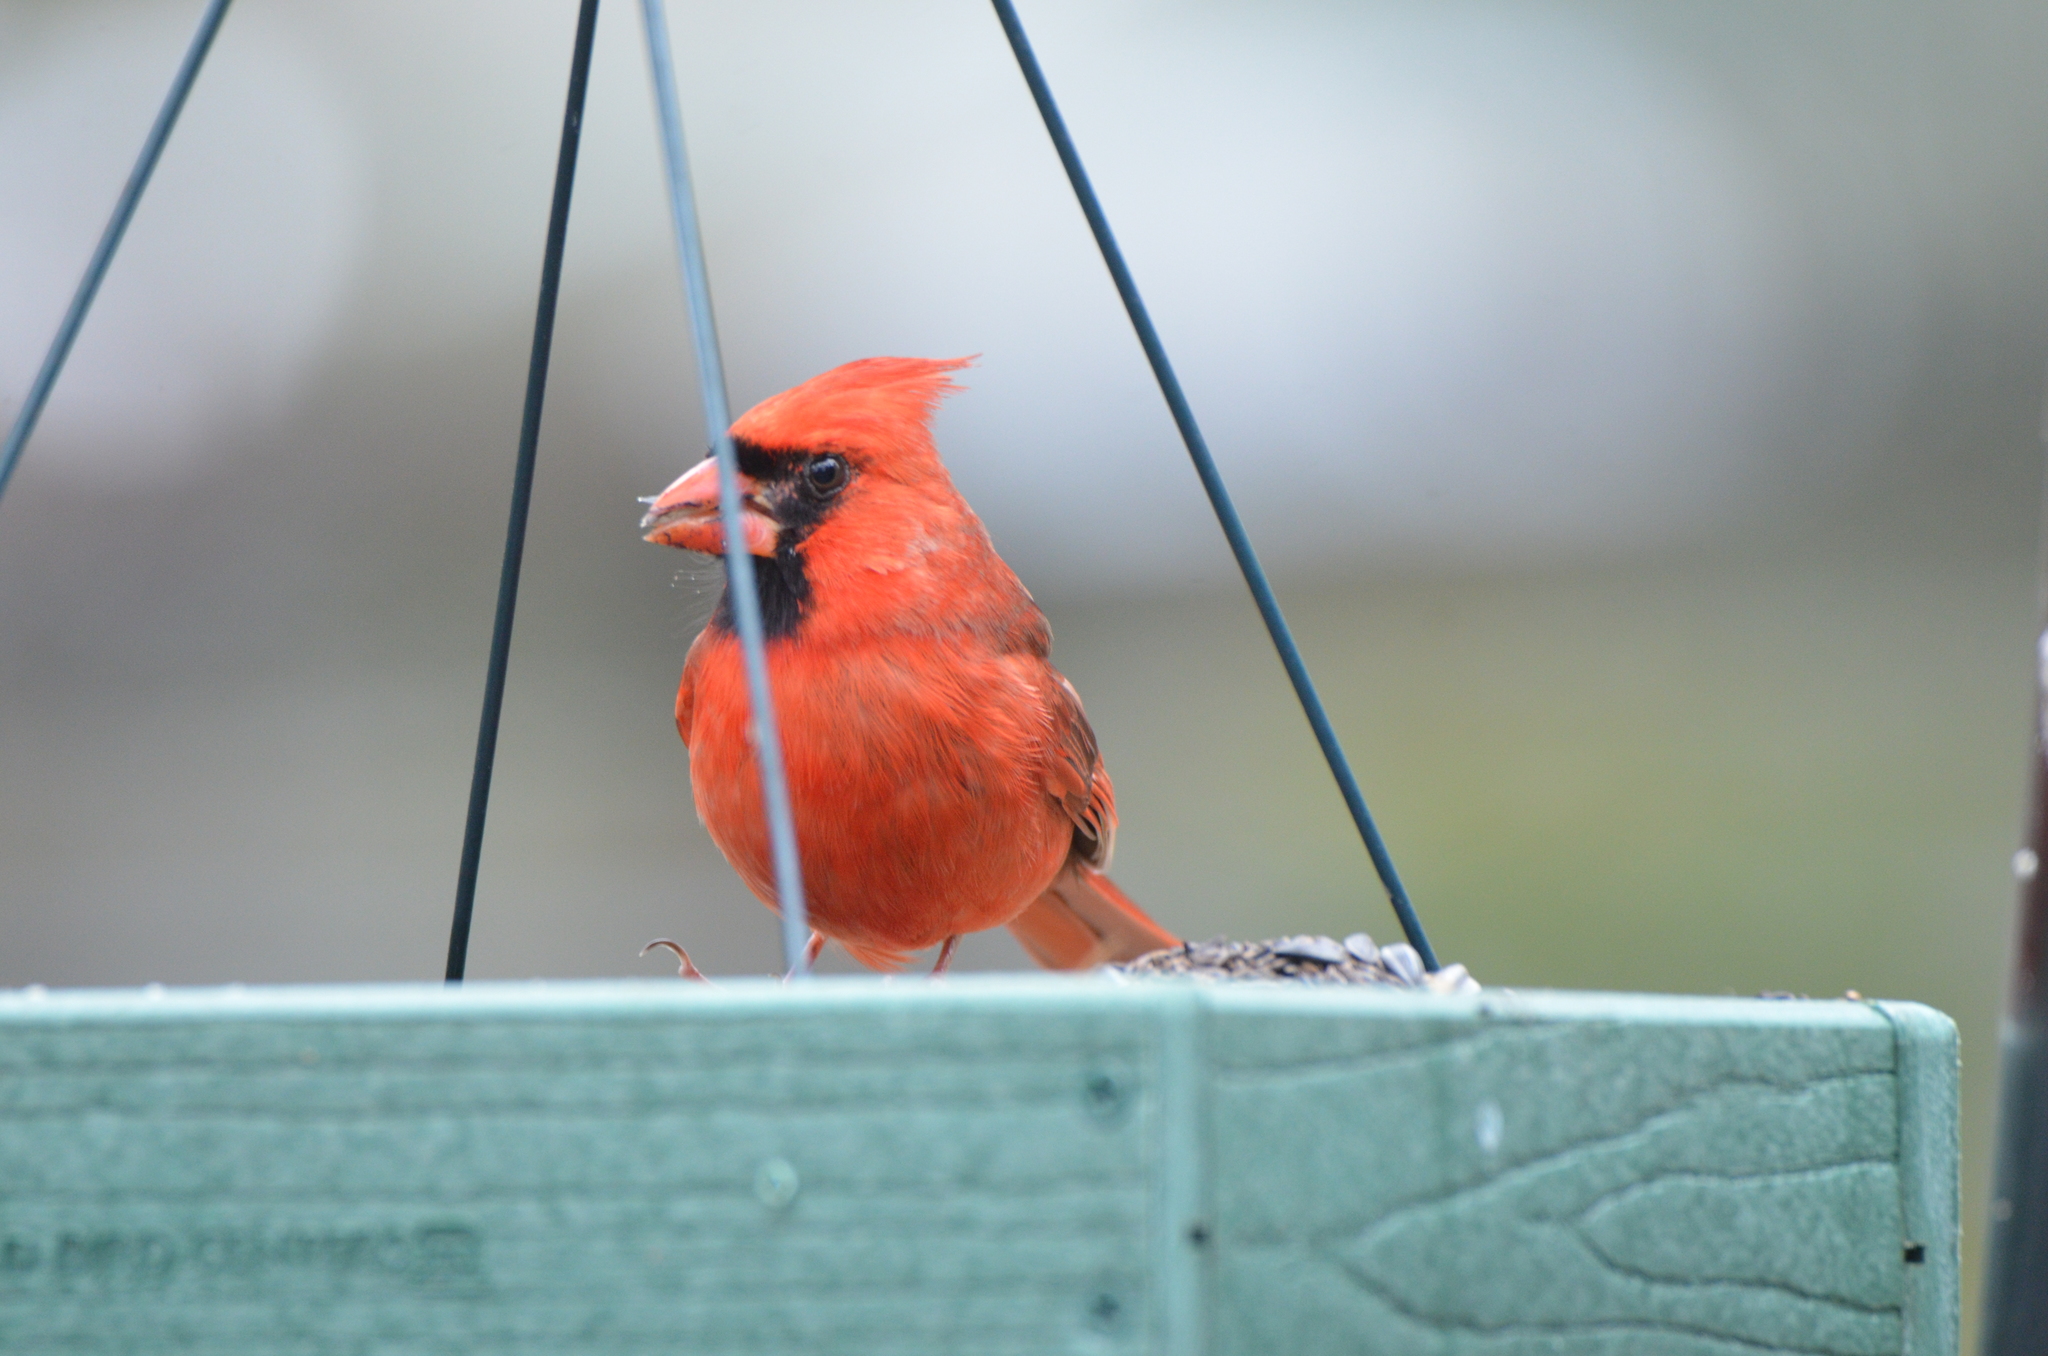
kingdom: Animalia
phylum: Chordata
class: Aves
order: Passeriformes
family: Cardinalidae
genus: Cardinalis
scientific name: Cardinalis cardinalis
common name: Northern cardinal
